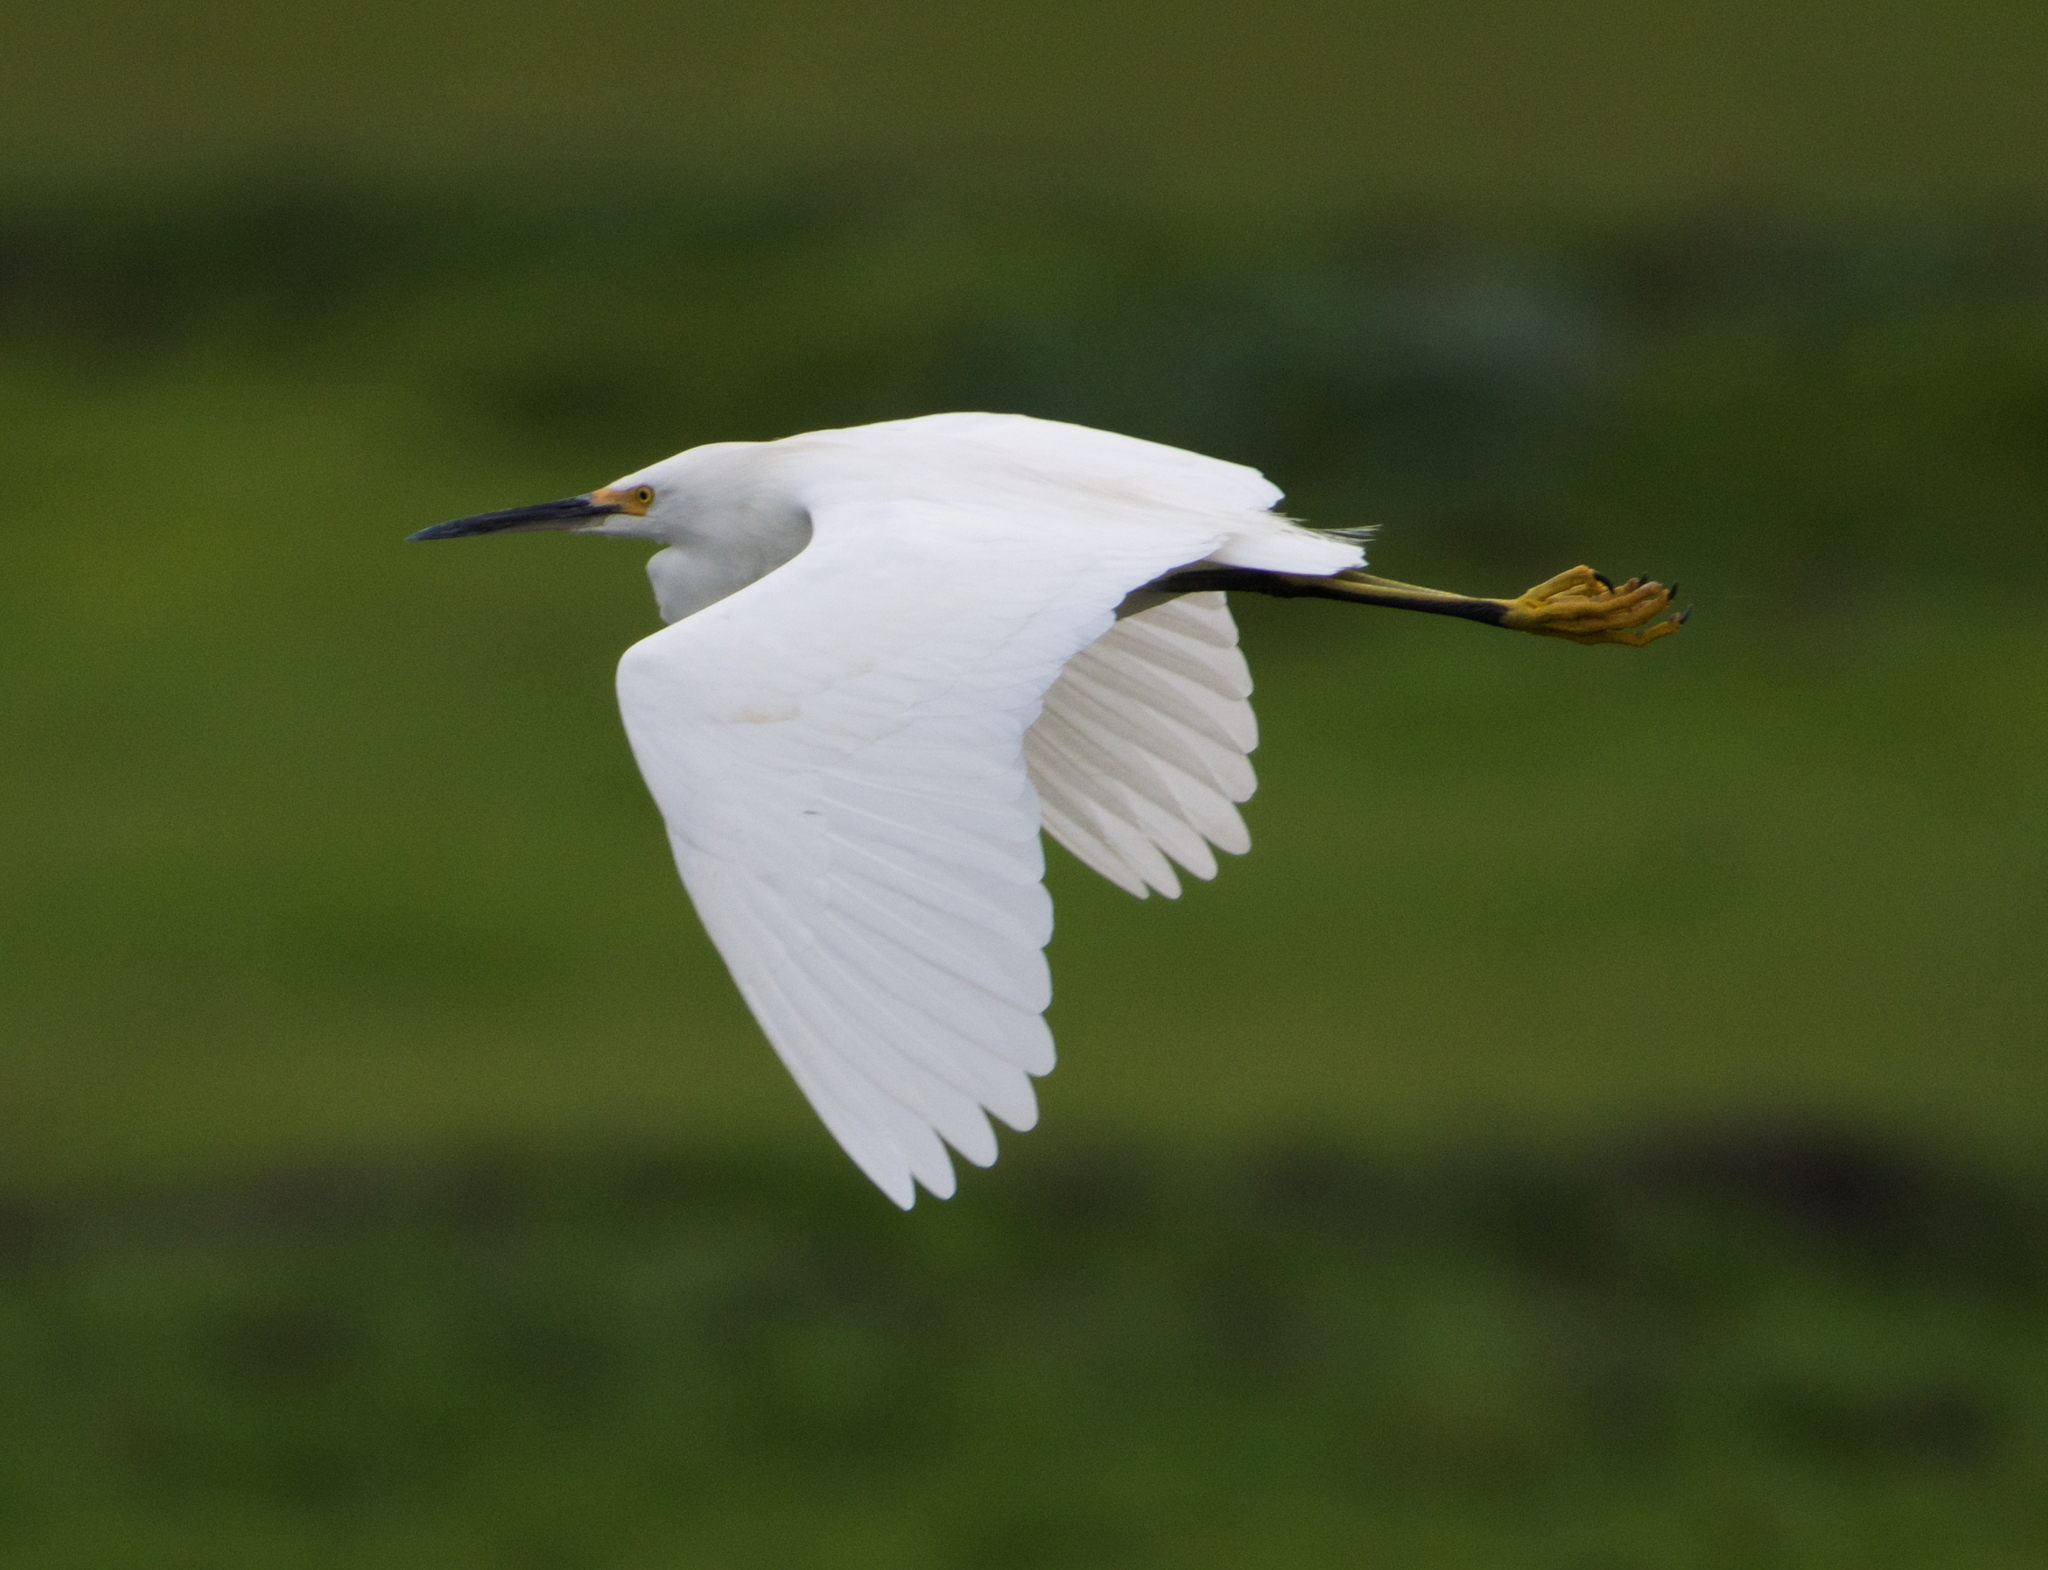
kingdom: Animalia
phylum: Chordata
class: Aves
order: Pelecaniformes
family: Ardeidae
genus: Egretta
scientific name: Egretta thula
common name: Snowy egret
